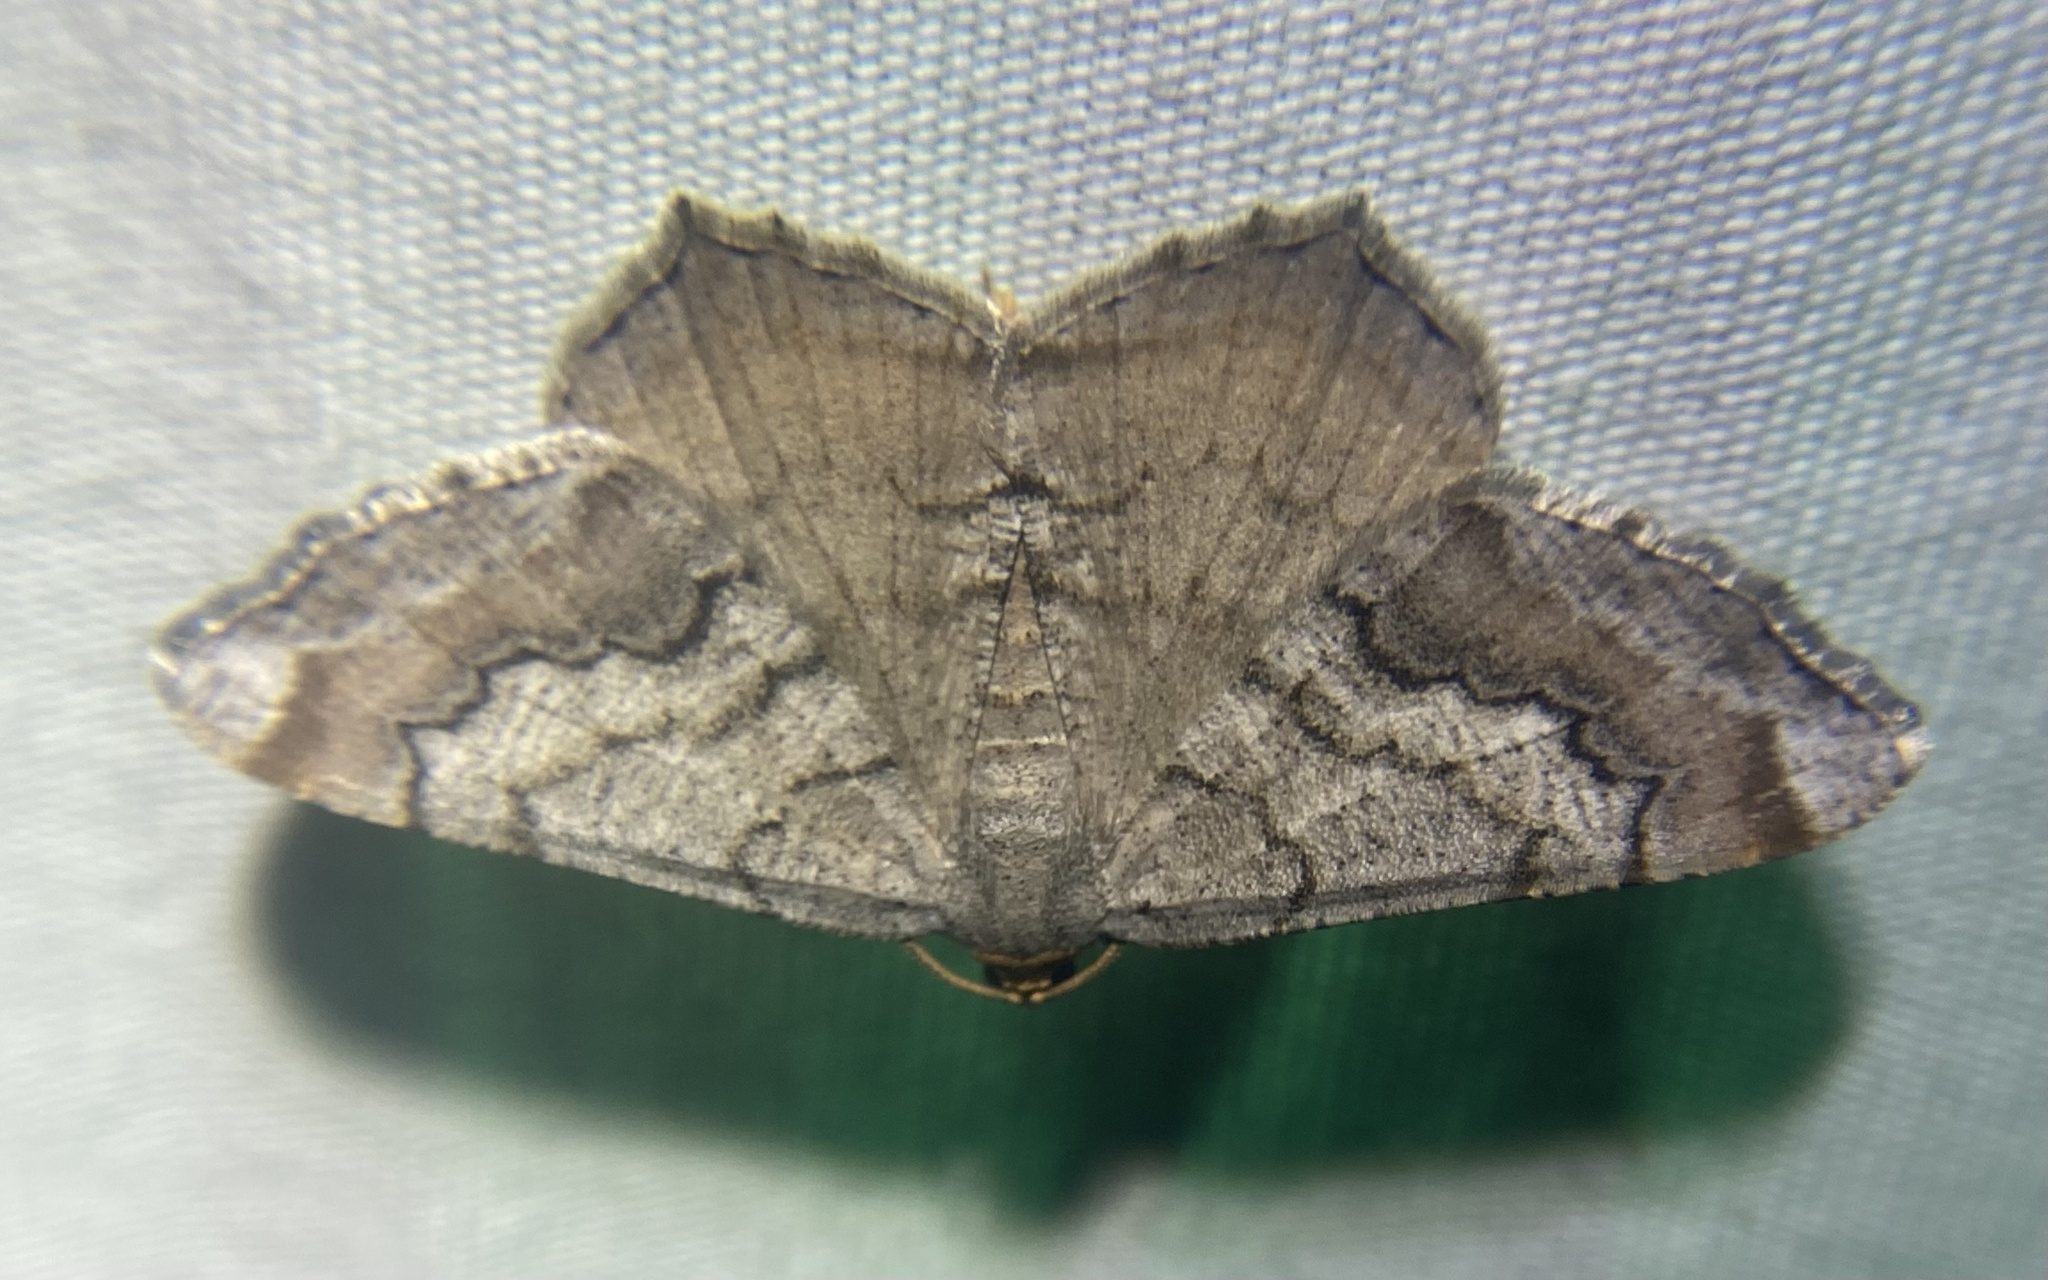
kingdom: Animalia
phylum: Arthropoda
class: Insecta
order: Lepidoptera
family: Geometridae
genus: Macaria
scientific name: Macaria distribuaria
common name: Southern chocolate angle
